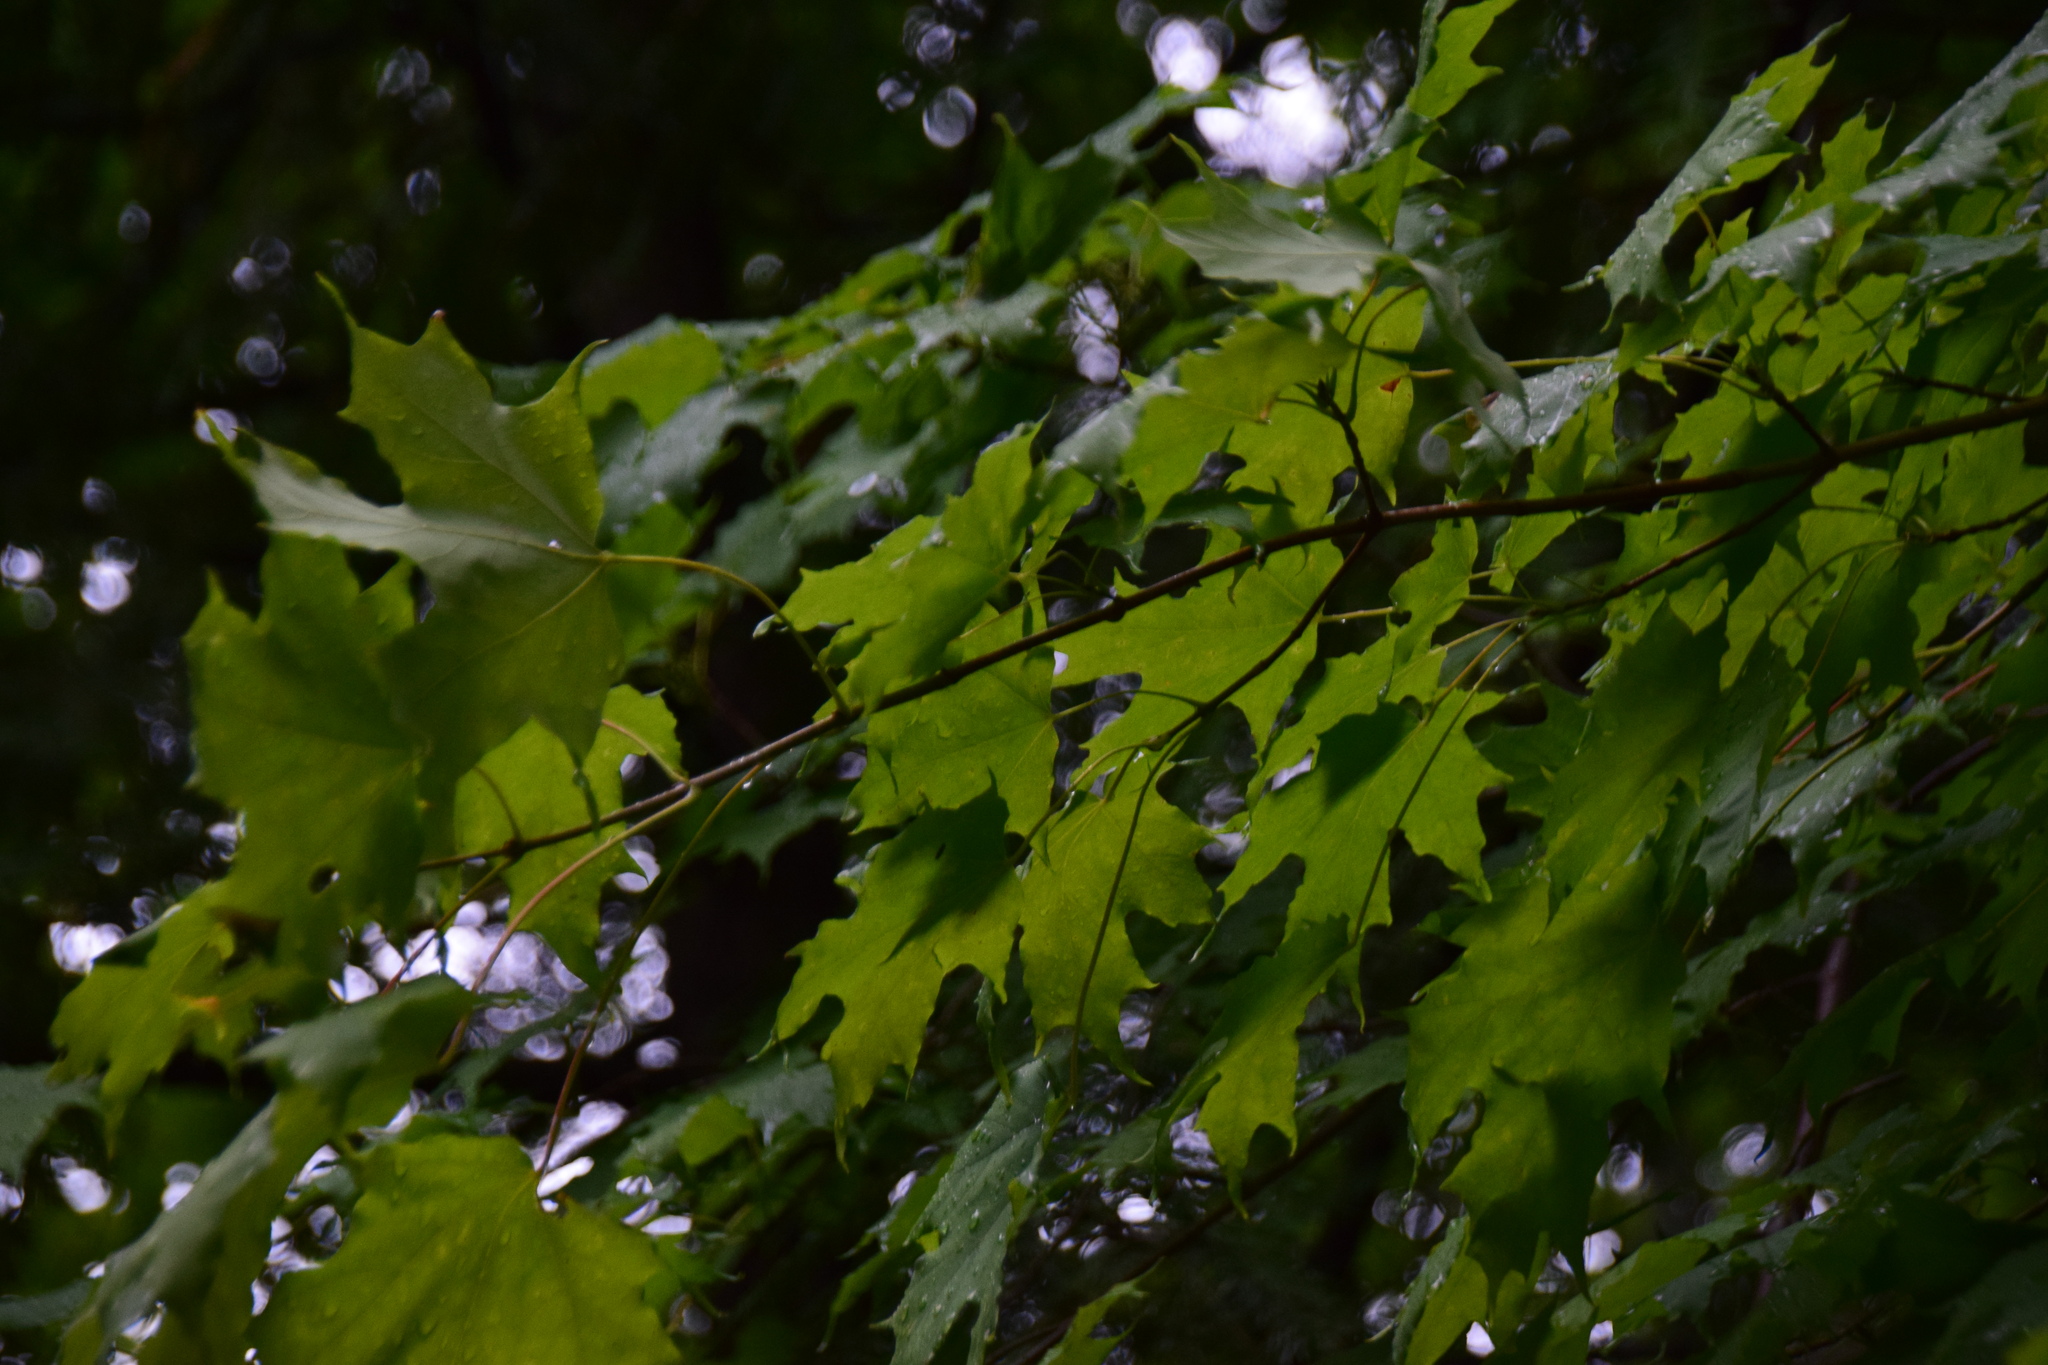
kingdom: Plantae
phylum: Tracheophyta
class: Magnoliopsida
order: Sapindales
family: Sapindaceae
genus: Acer
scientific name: Acer saccharum
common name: Sugar maple
